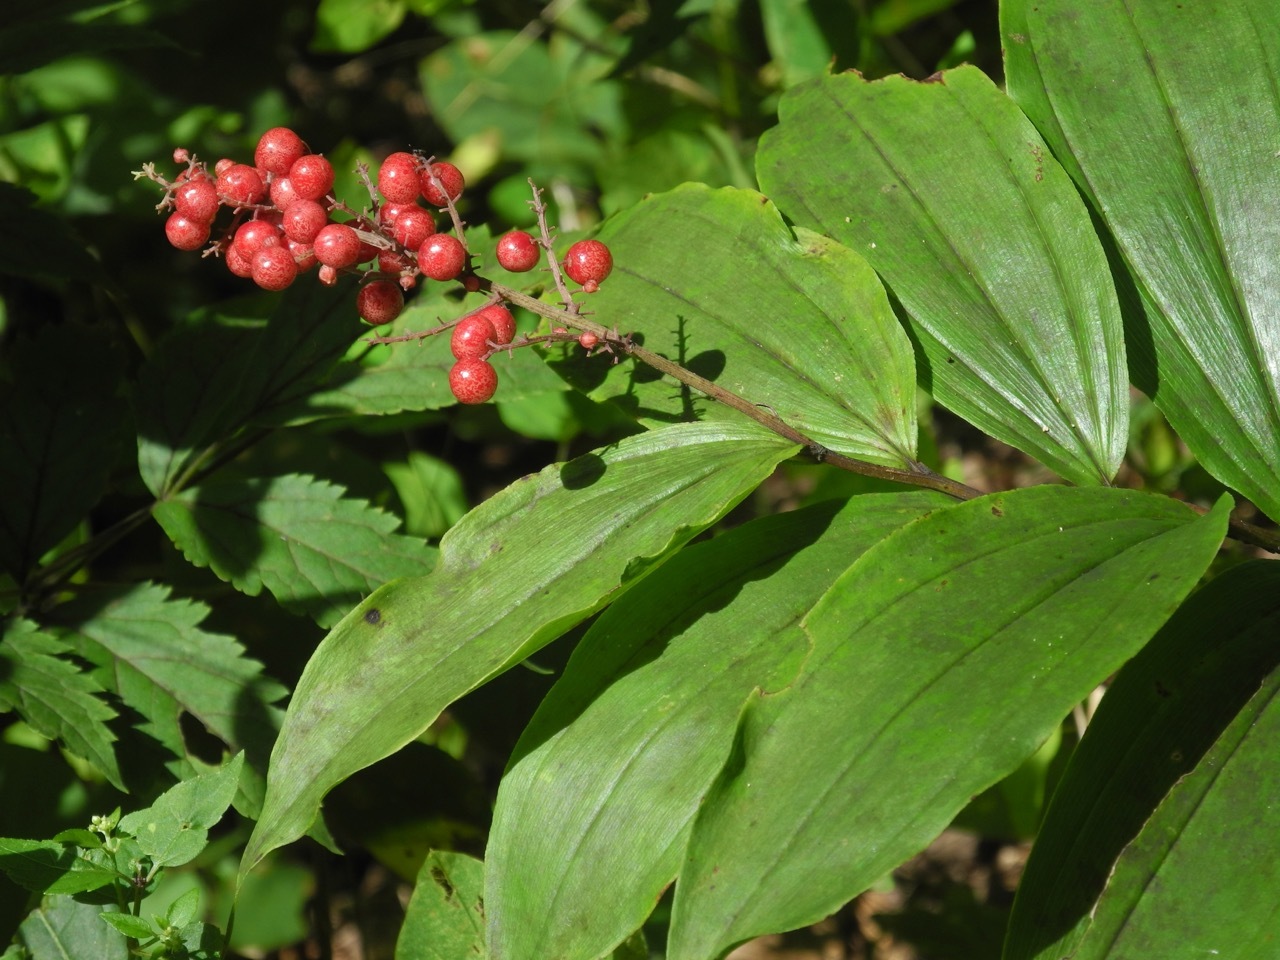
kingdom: Plantae
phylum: Tracheophyta
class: Liliopsida
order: Asparagales
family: Asparagaceae
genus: Maianthemum
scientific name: Maianthemum racemosum
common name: False spikenard
